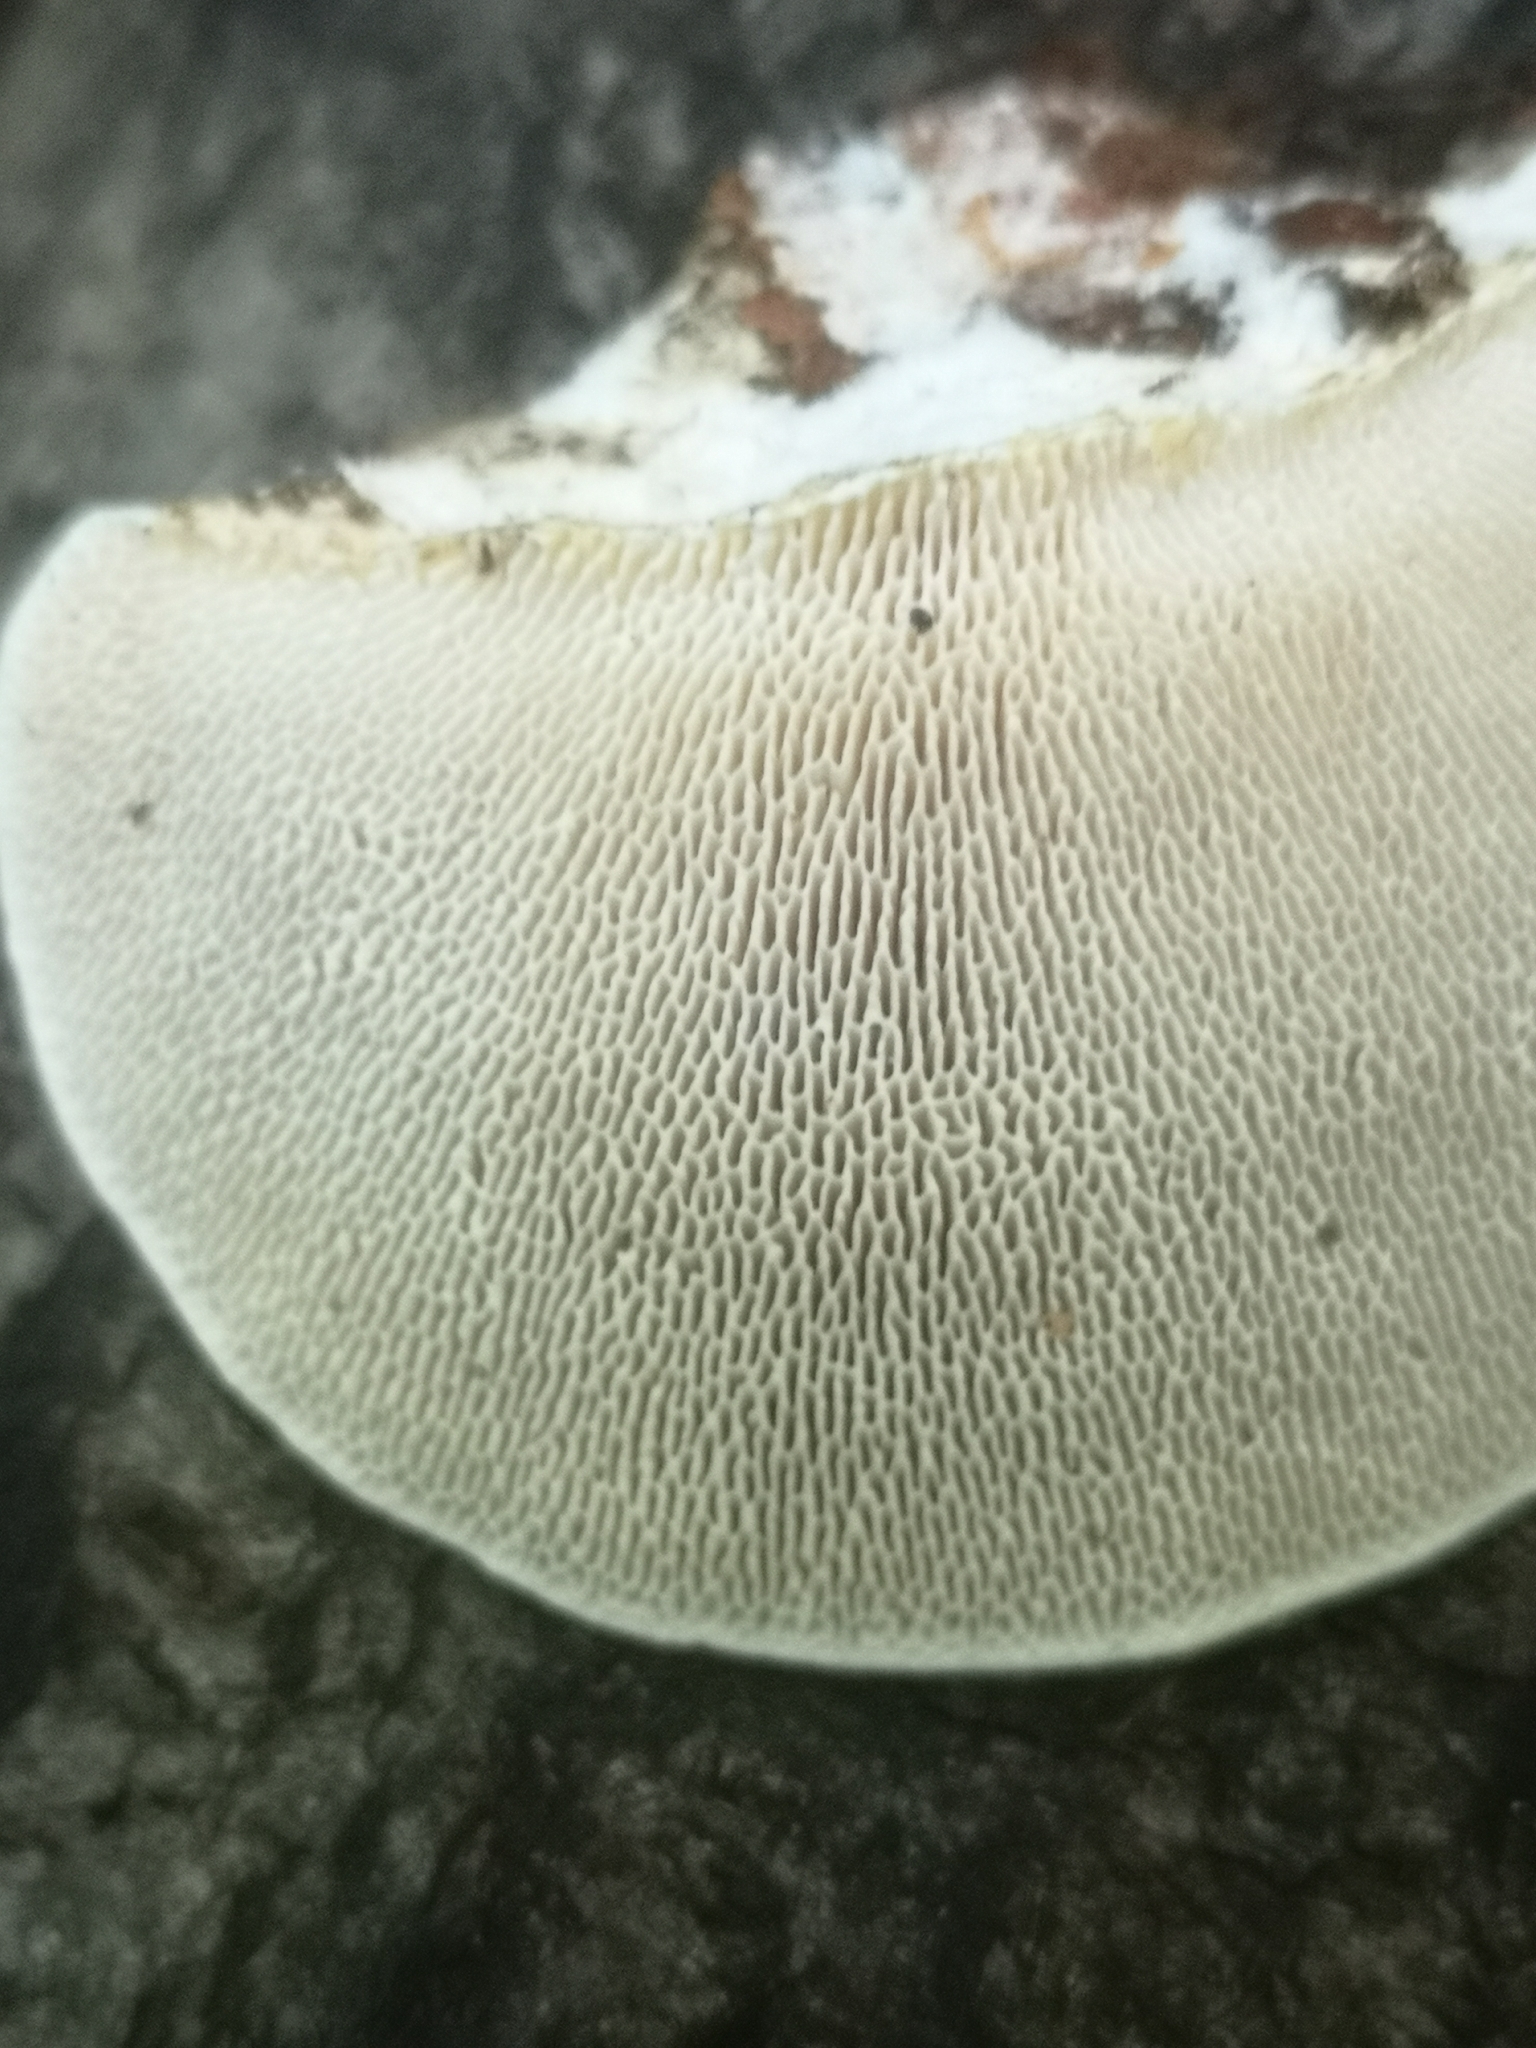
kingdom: Fungi
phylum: Basidiomycota
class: Agaricomycetes
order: Polyporales
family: Polyporaceae
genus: Trametes
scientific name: Trametes gibbosa
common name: Lumpy bracket
